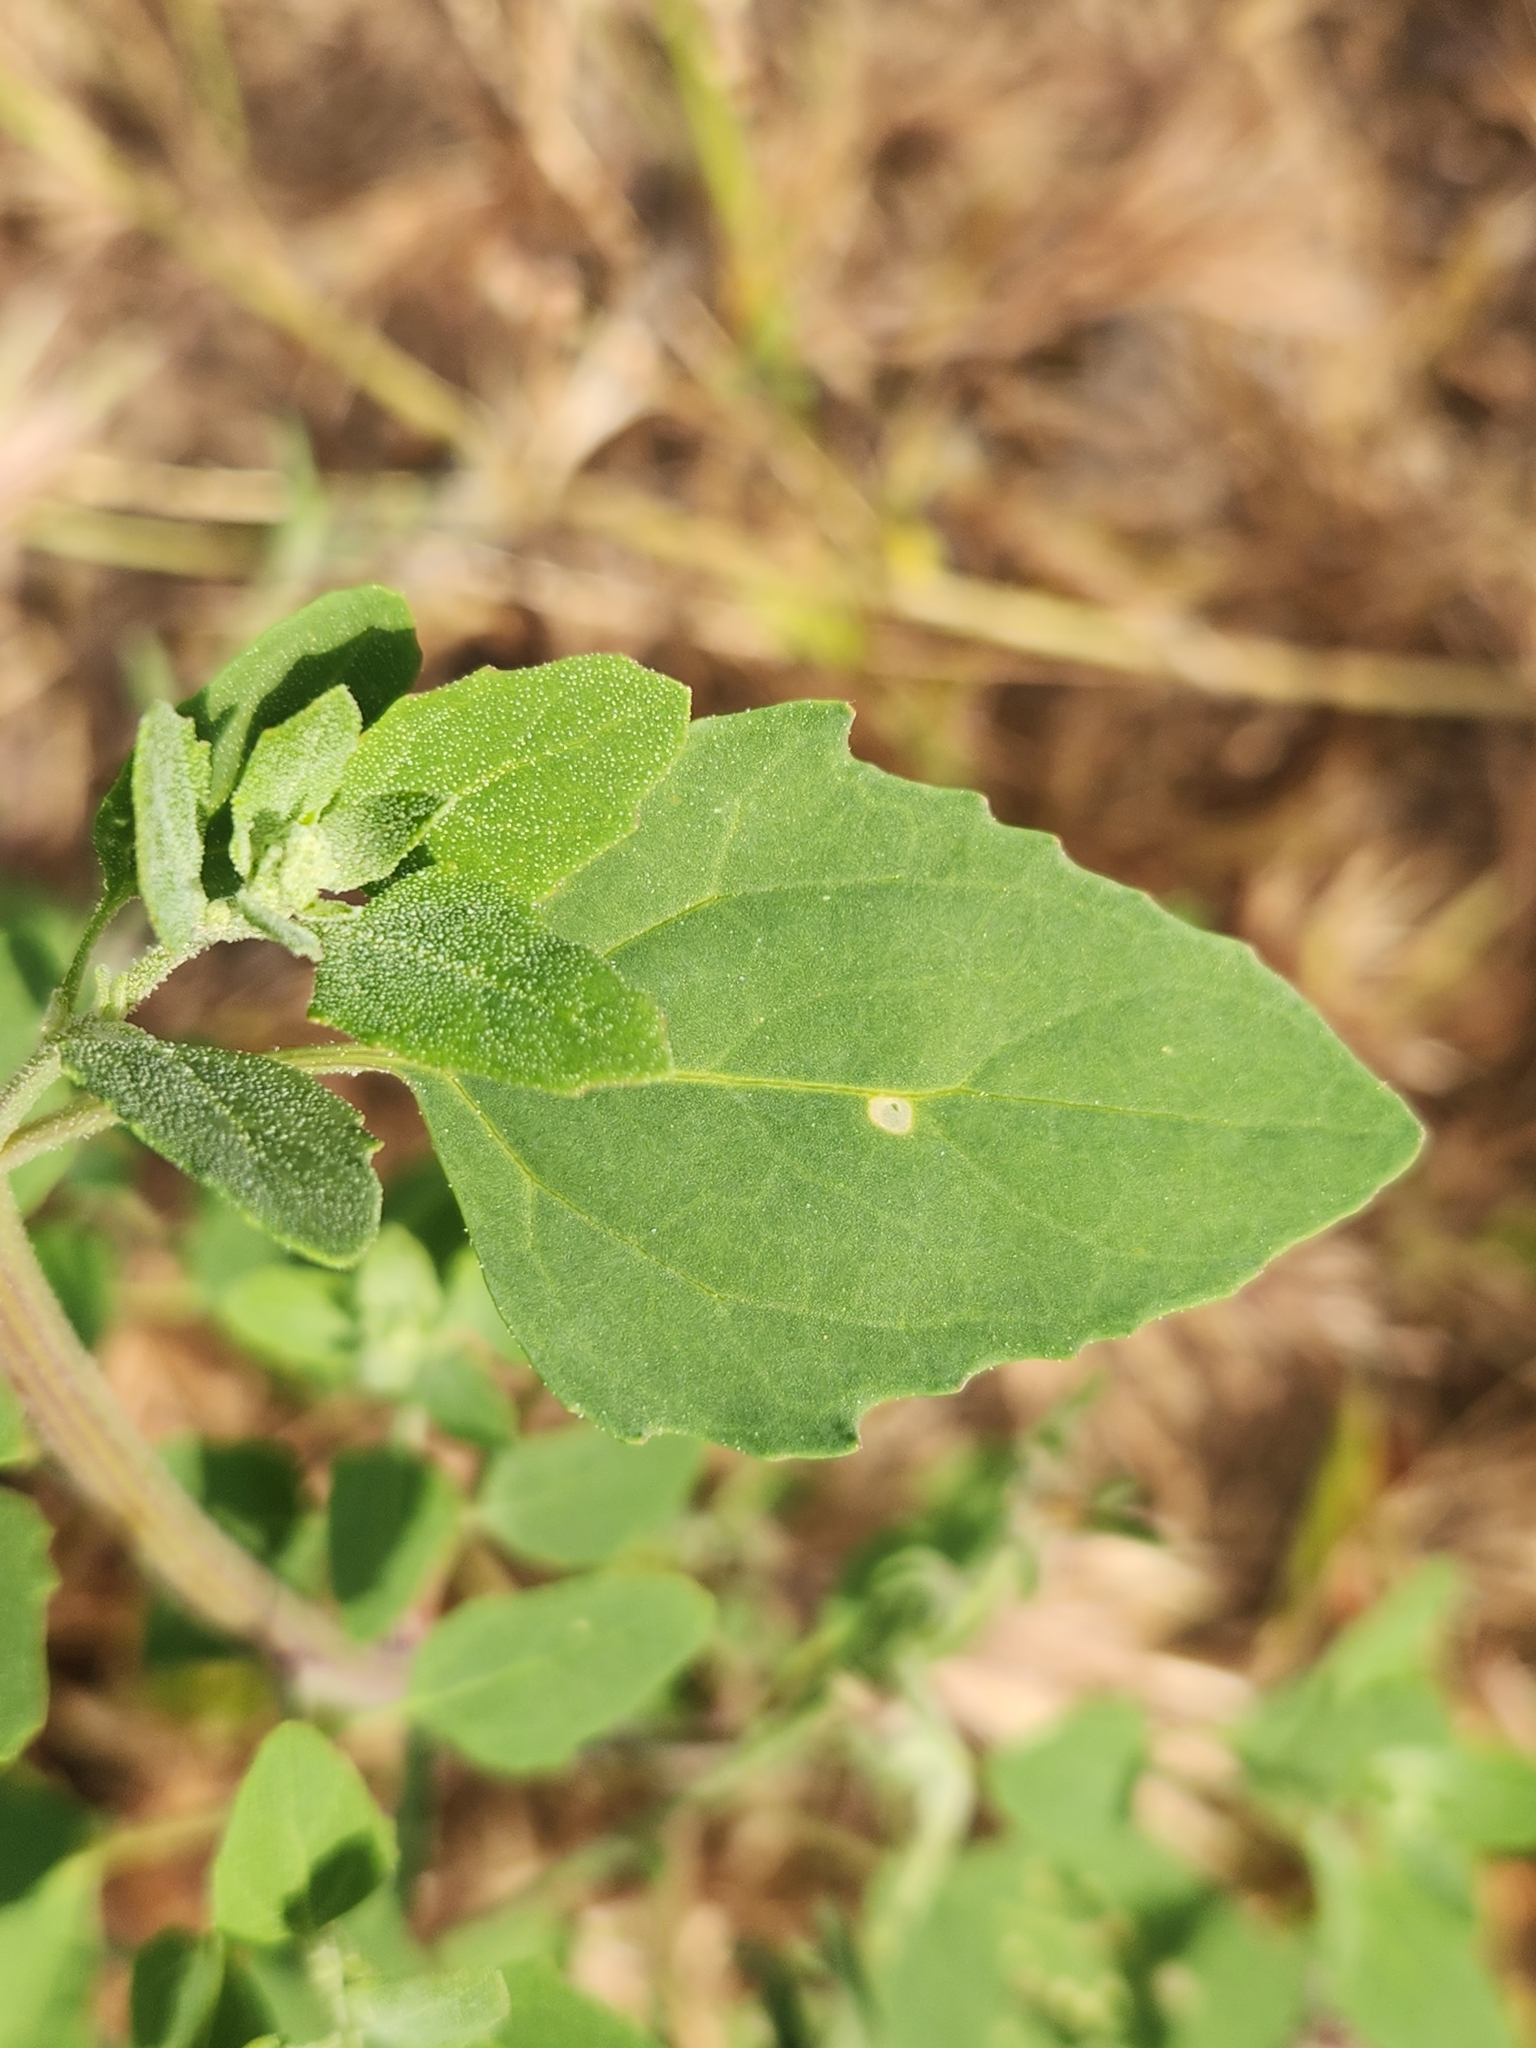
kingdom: Plantae
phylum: Tracheophyta
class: Magnoliopsida
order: Caryophyllales
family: Amaranthaceae
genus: Chenopodium
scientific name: Chenopodium album
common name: Fat-hen
